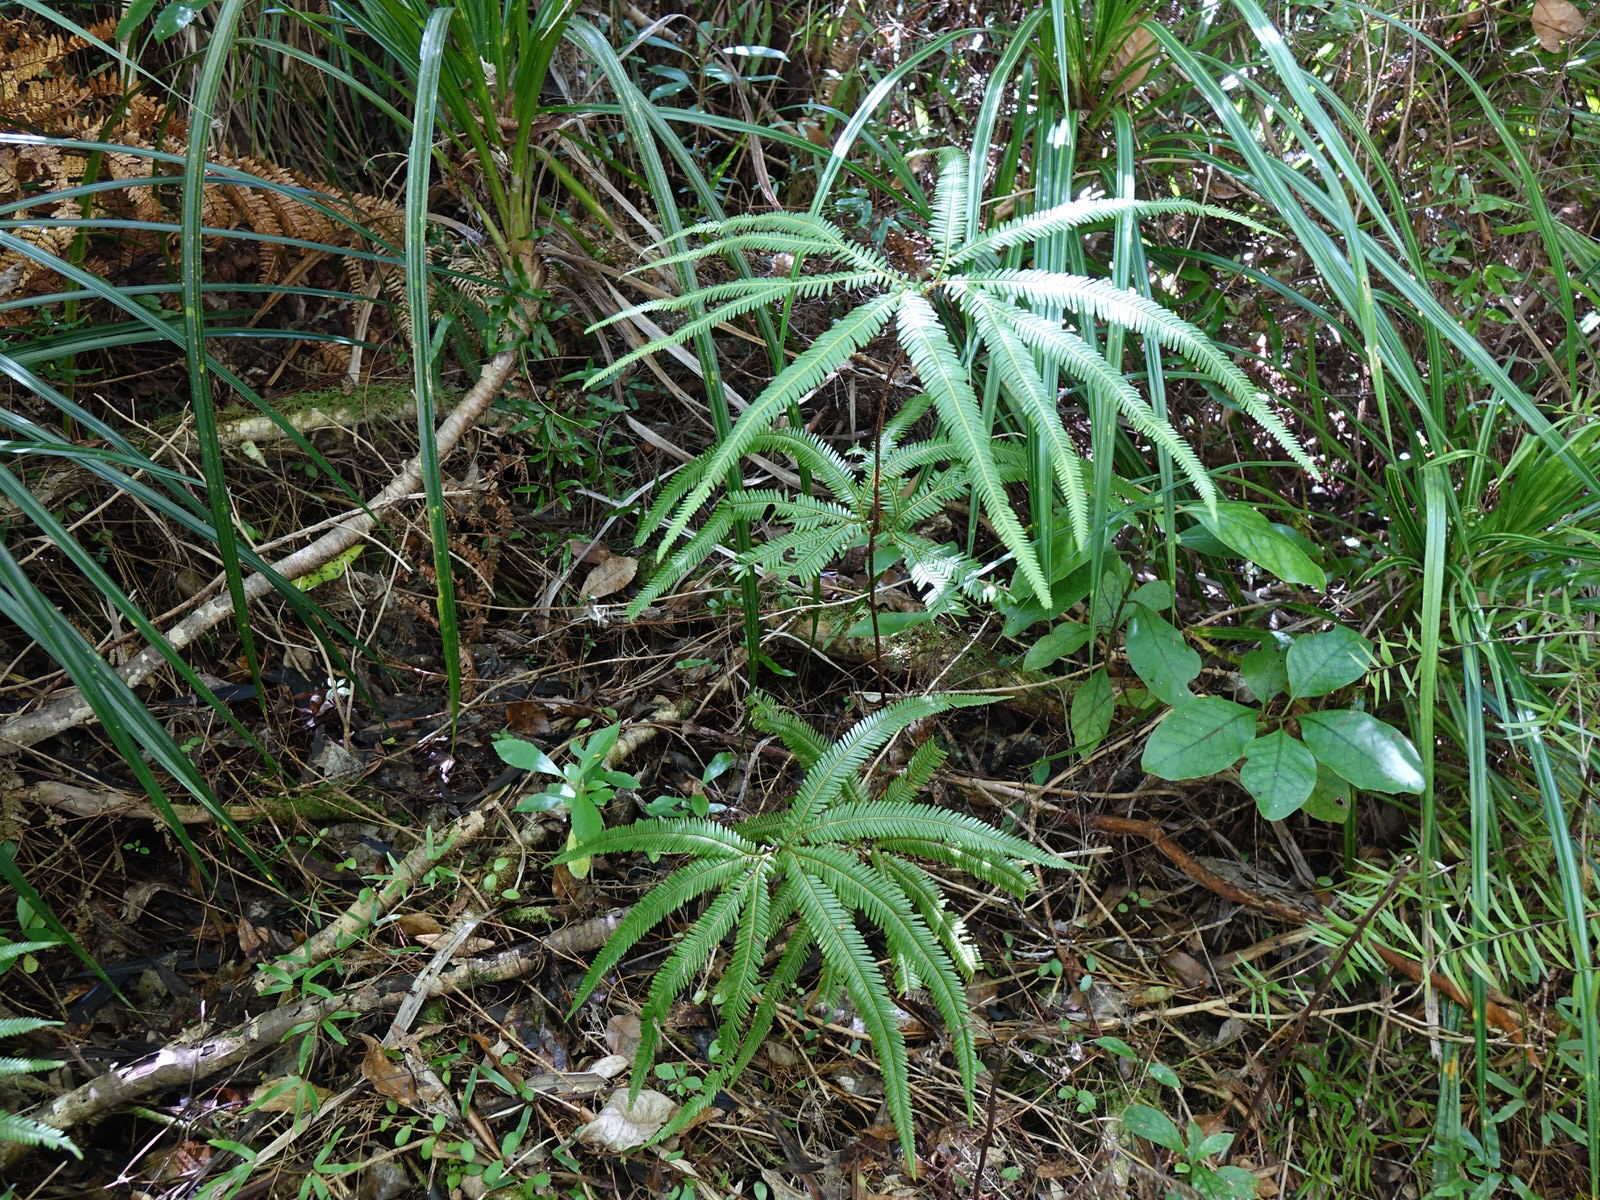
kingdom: Plantae
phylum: Tracheophyta
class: Polypodiopsida
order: Gleicheniales
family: Gleicheniaceae
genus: Sticherus
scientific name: Sticherus cunninghamii
